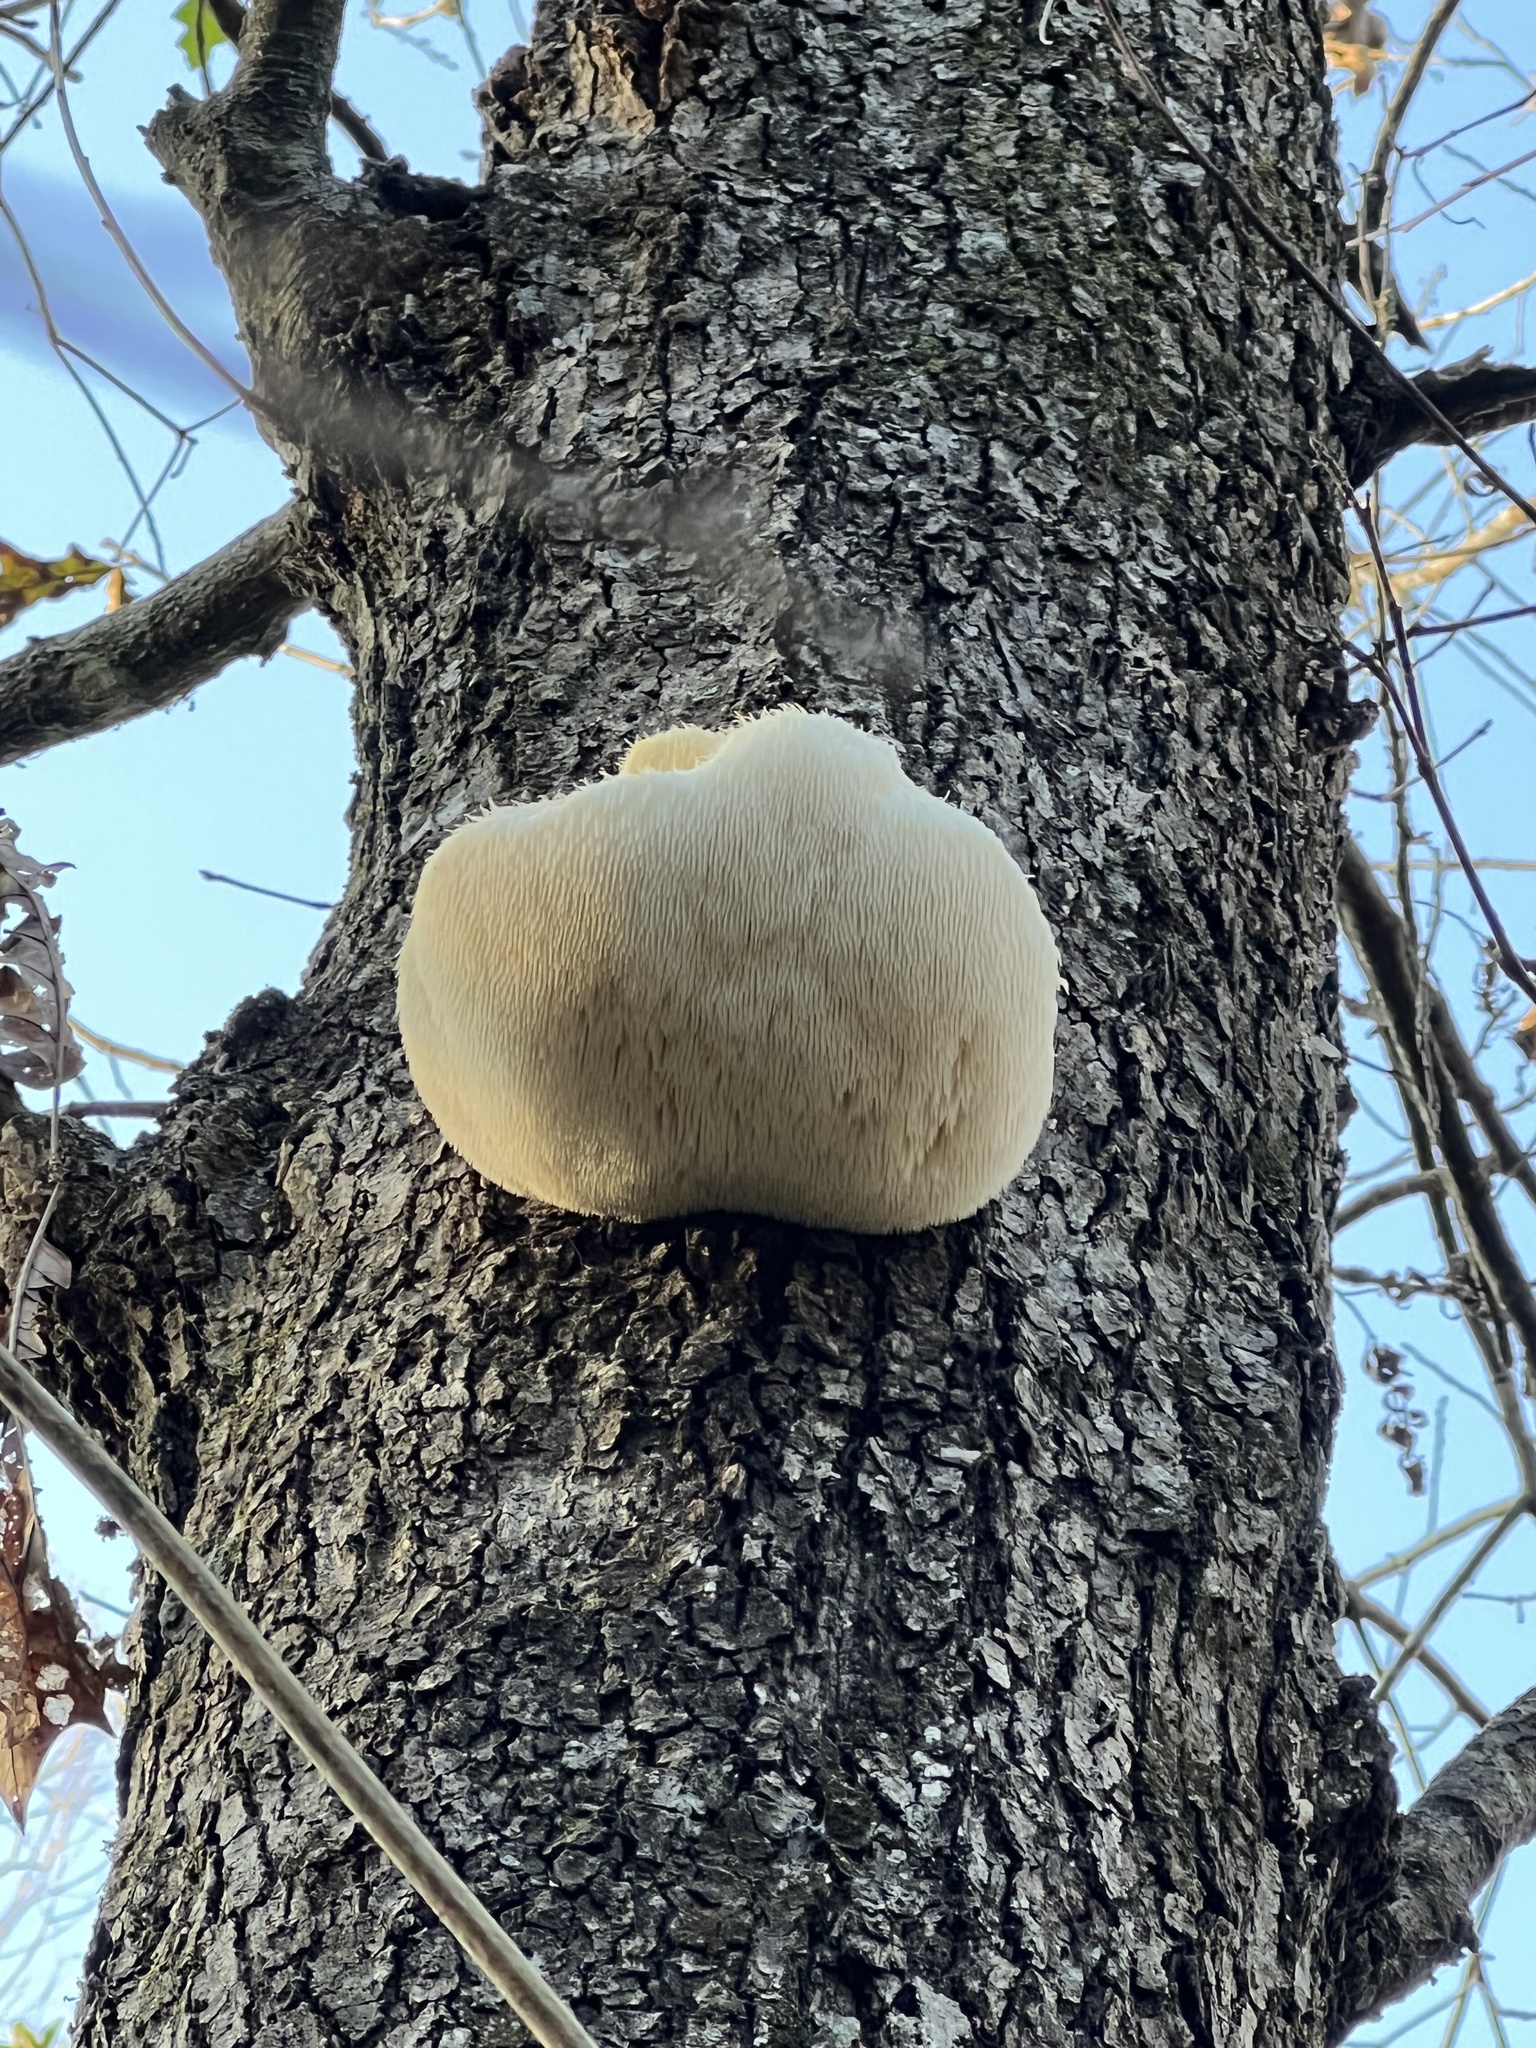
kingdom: Fungi
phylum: Basidiomycota
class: Agaricomycetes
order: Russulales
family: Hericiaceae
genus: Hericium
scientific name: Hericium erinaceus
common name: Bearded tooth
